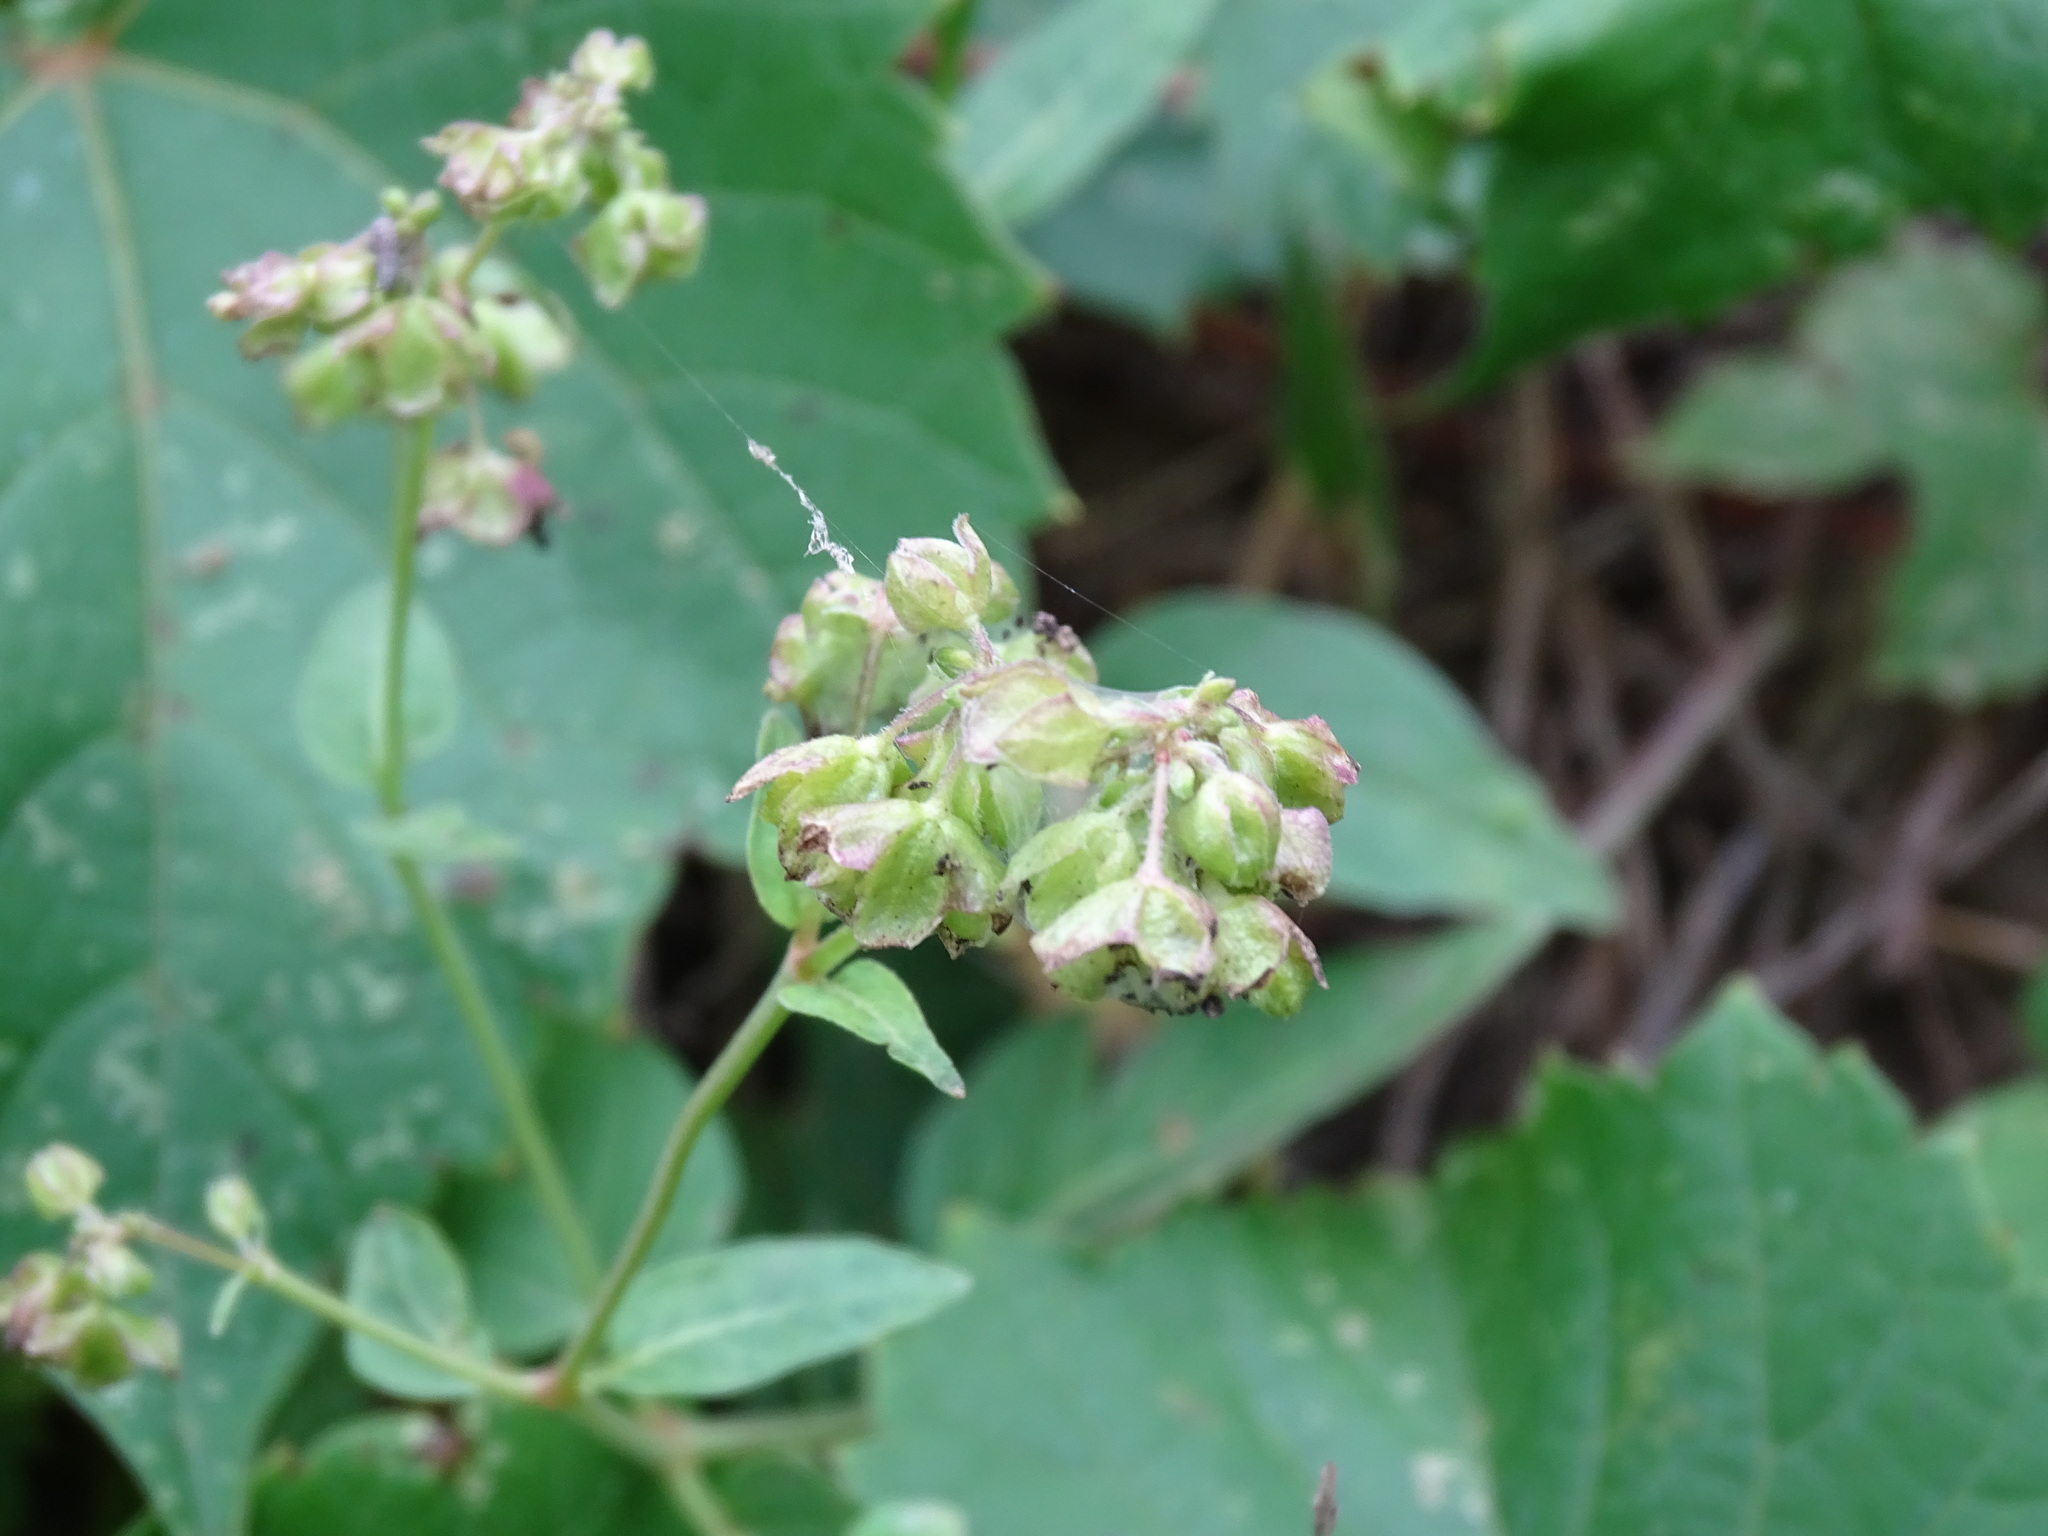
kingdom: Plantae
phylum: Tracheophyta
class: Magnoliopsida
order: Caryophyllales
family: Nyctaginaceae
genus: Mirabilis
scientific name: Mirabilis nyctaginea
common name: Umbrella wort
